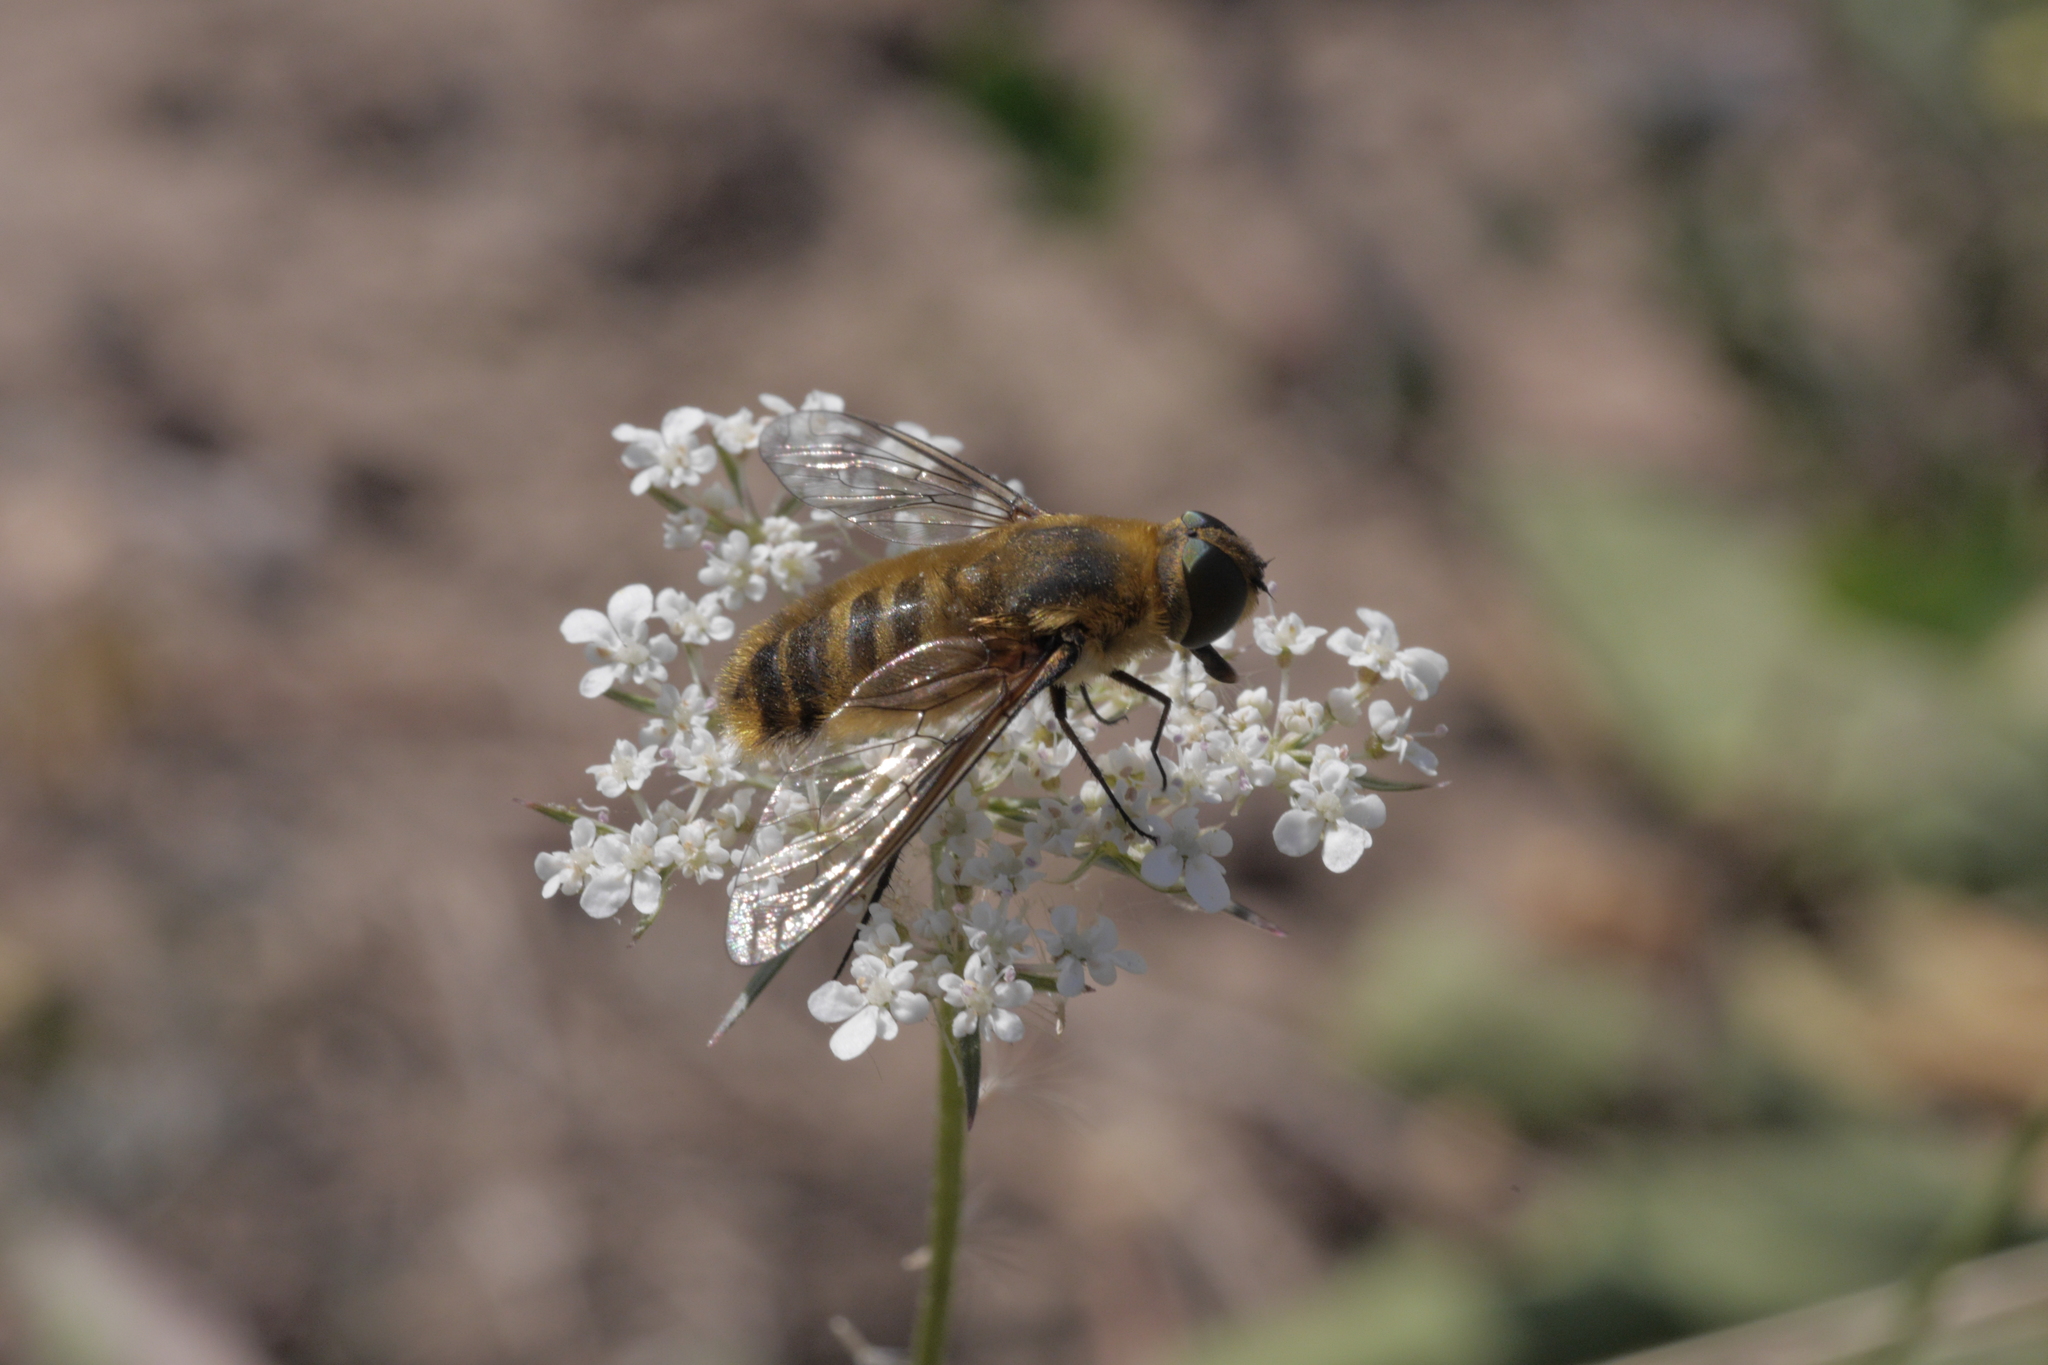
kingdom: Animalia
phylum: Arthropoda
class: Insecta
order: Diptera
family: Bombyliidae
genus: Villa
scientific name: Villa hottentotta
